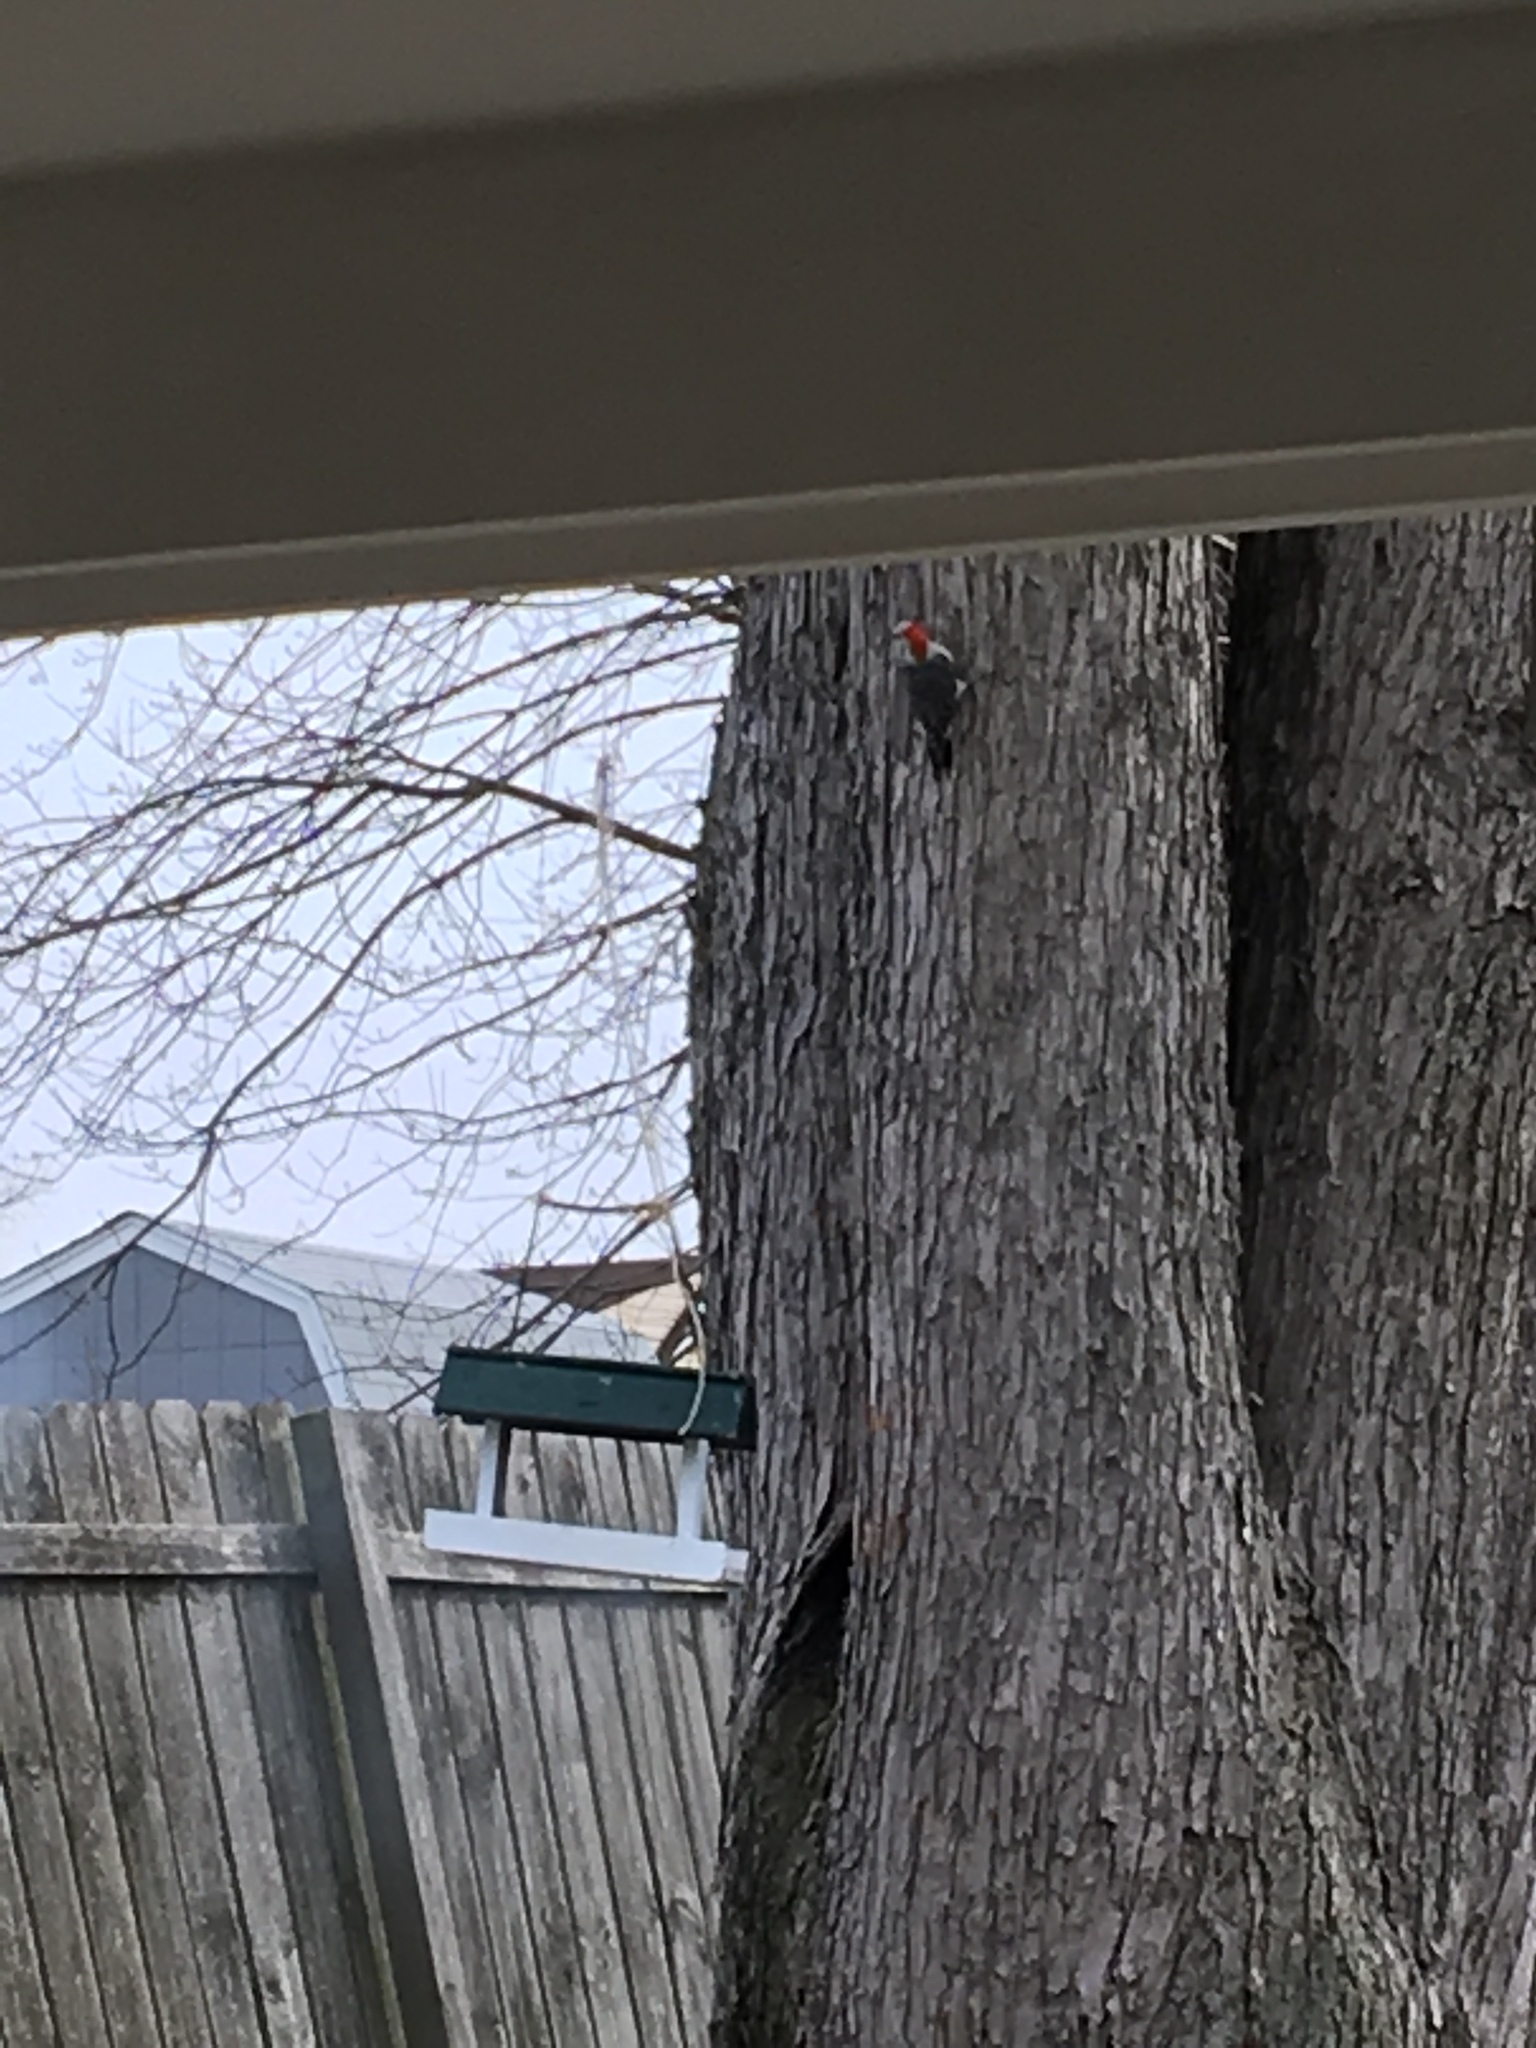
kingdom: Animalia
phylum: Chordata
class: Aves
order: Piciformes
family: Picidae
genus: Melanerpes
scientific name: Melanerpes carolinus
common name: Red-bellied woodpecker
